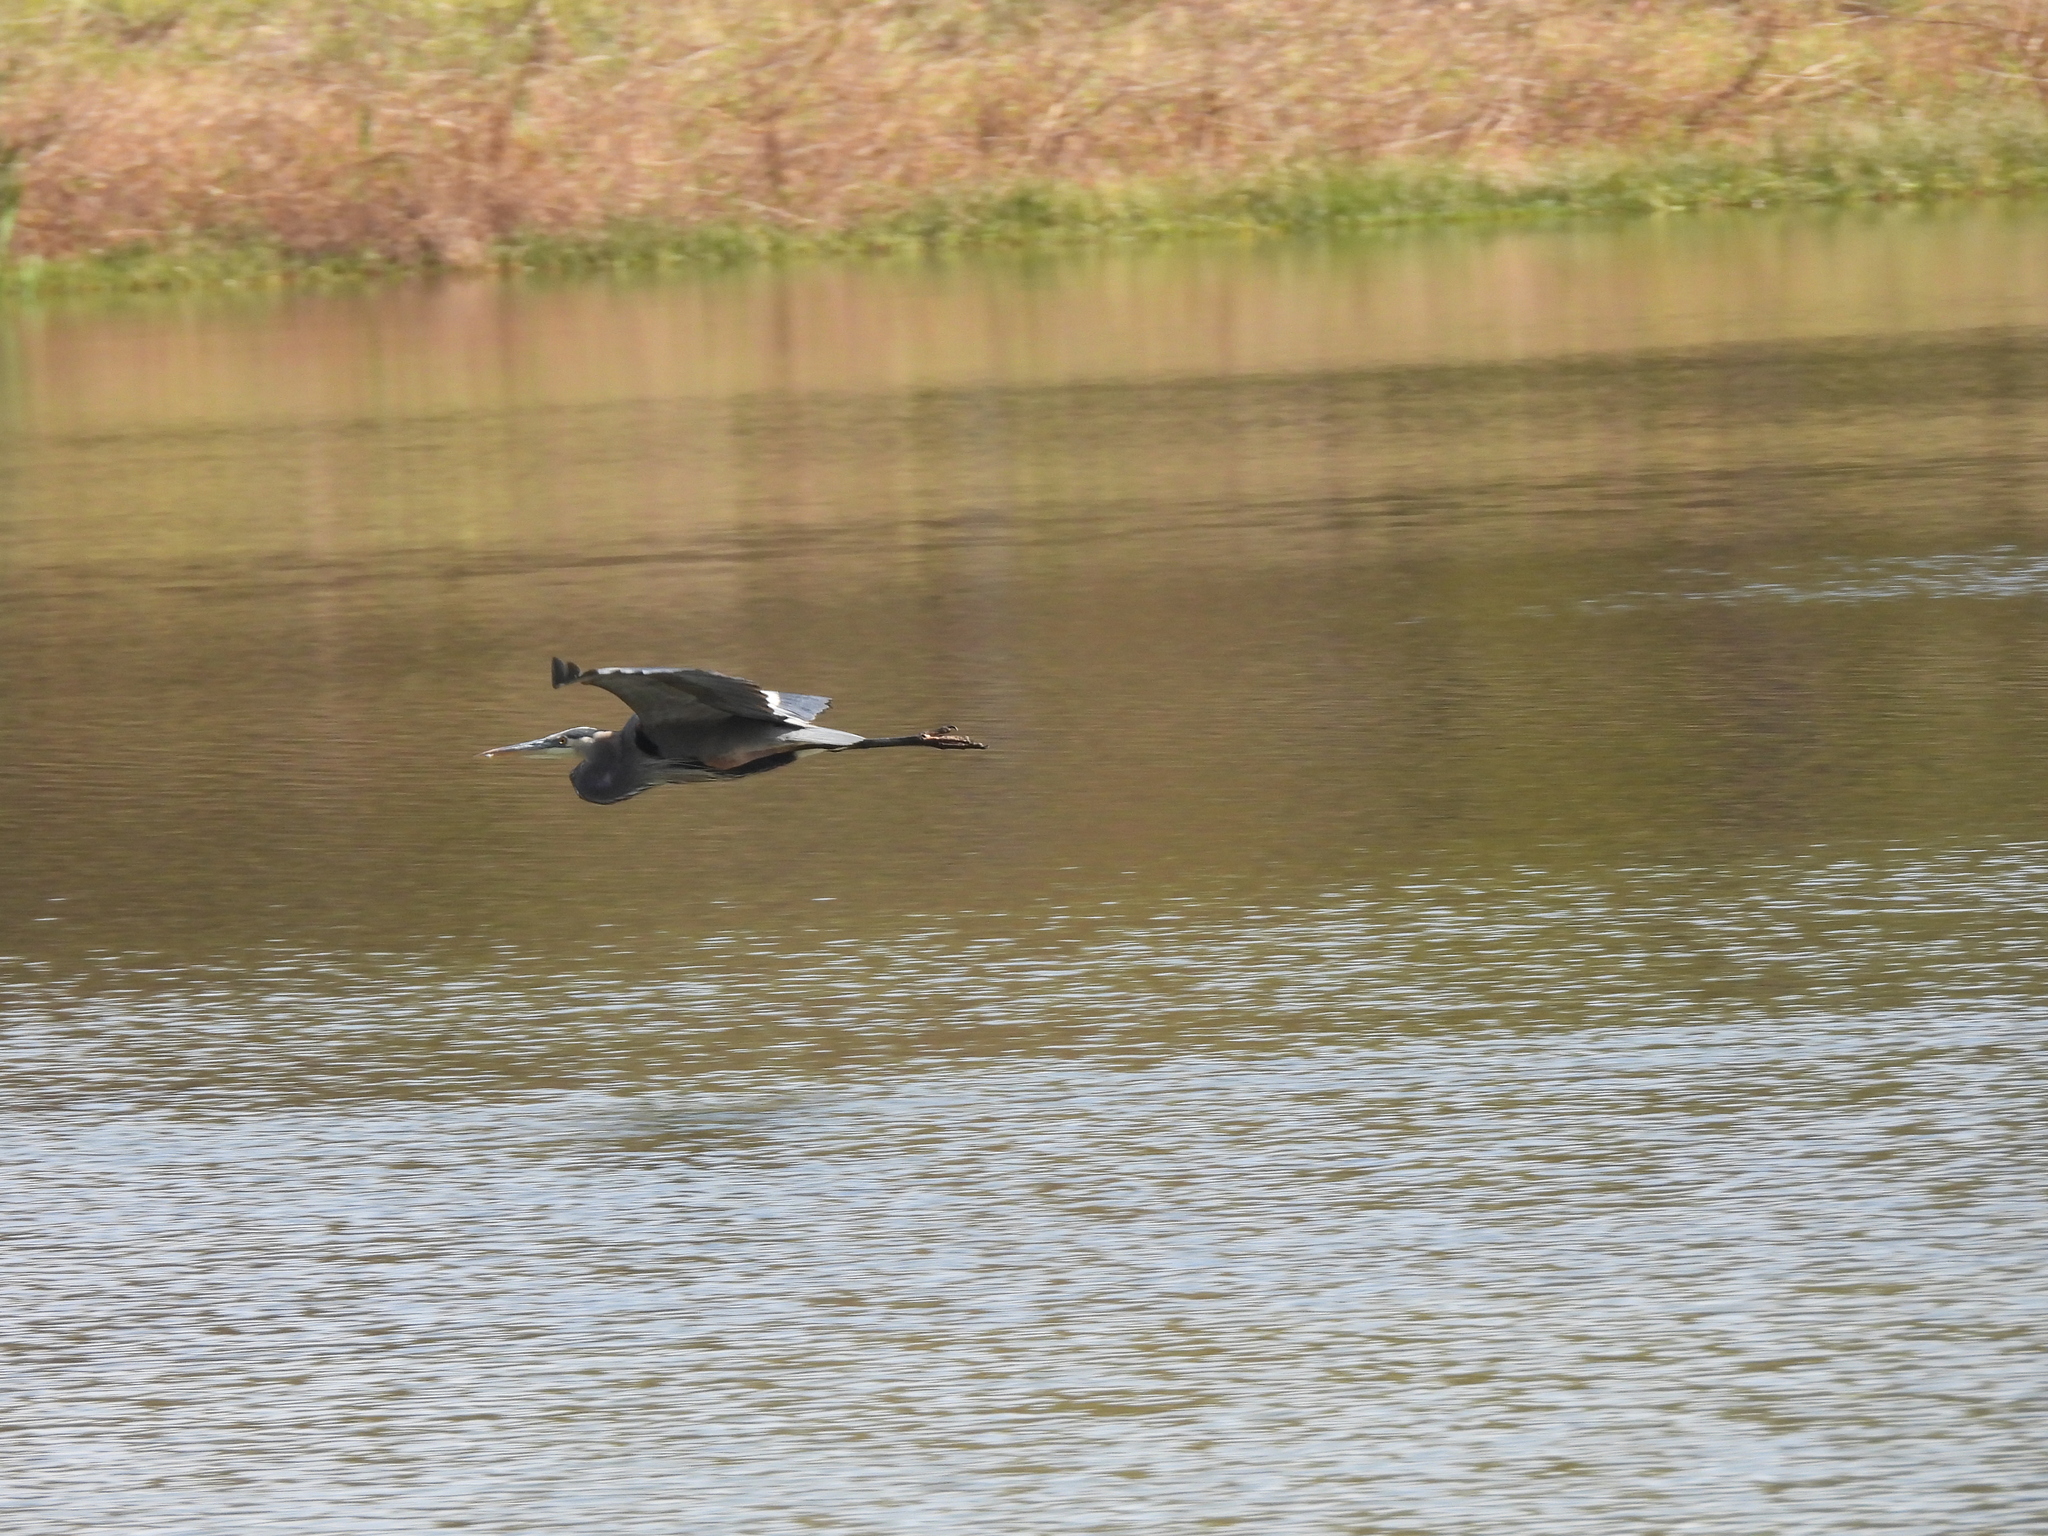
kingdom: Animalia
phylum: Chordata
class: Aves
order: Pelecaniformes
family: Ardeidae
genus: Ardea
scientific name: Ardea herodias
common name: Great blue heron
